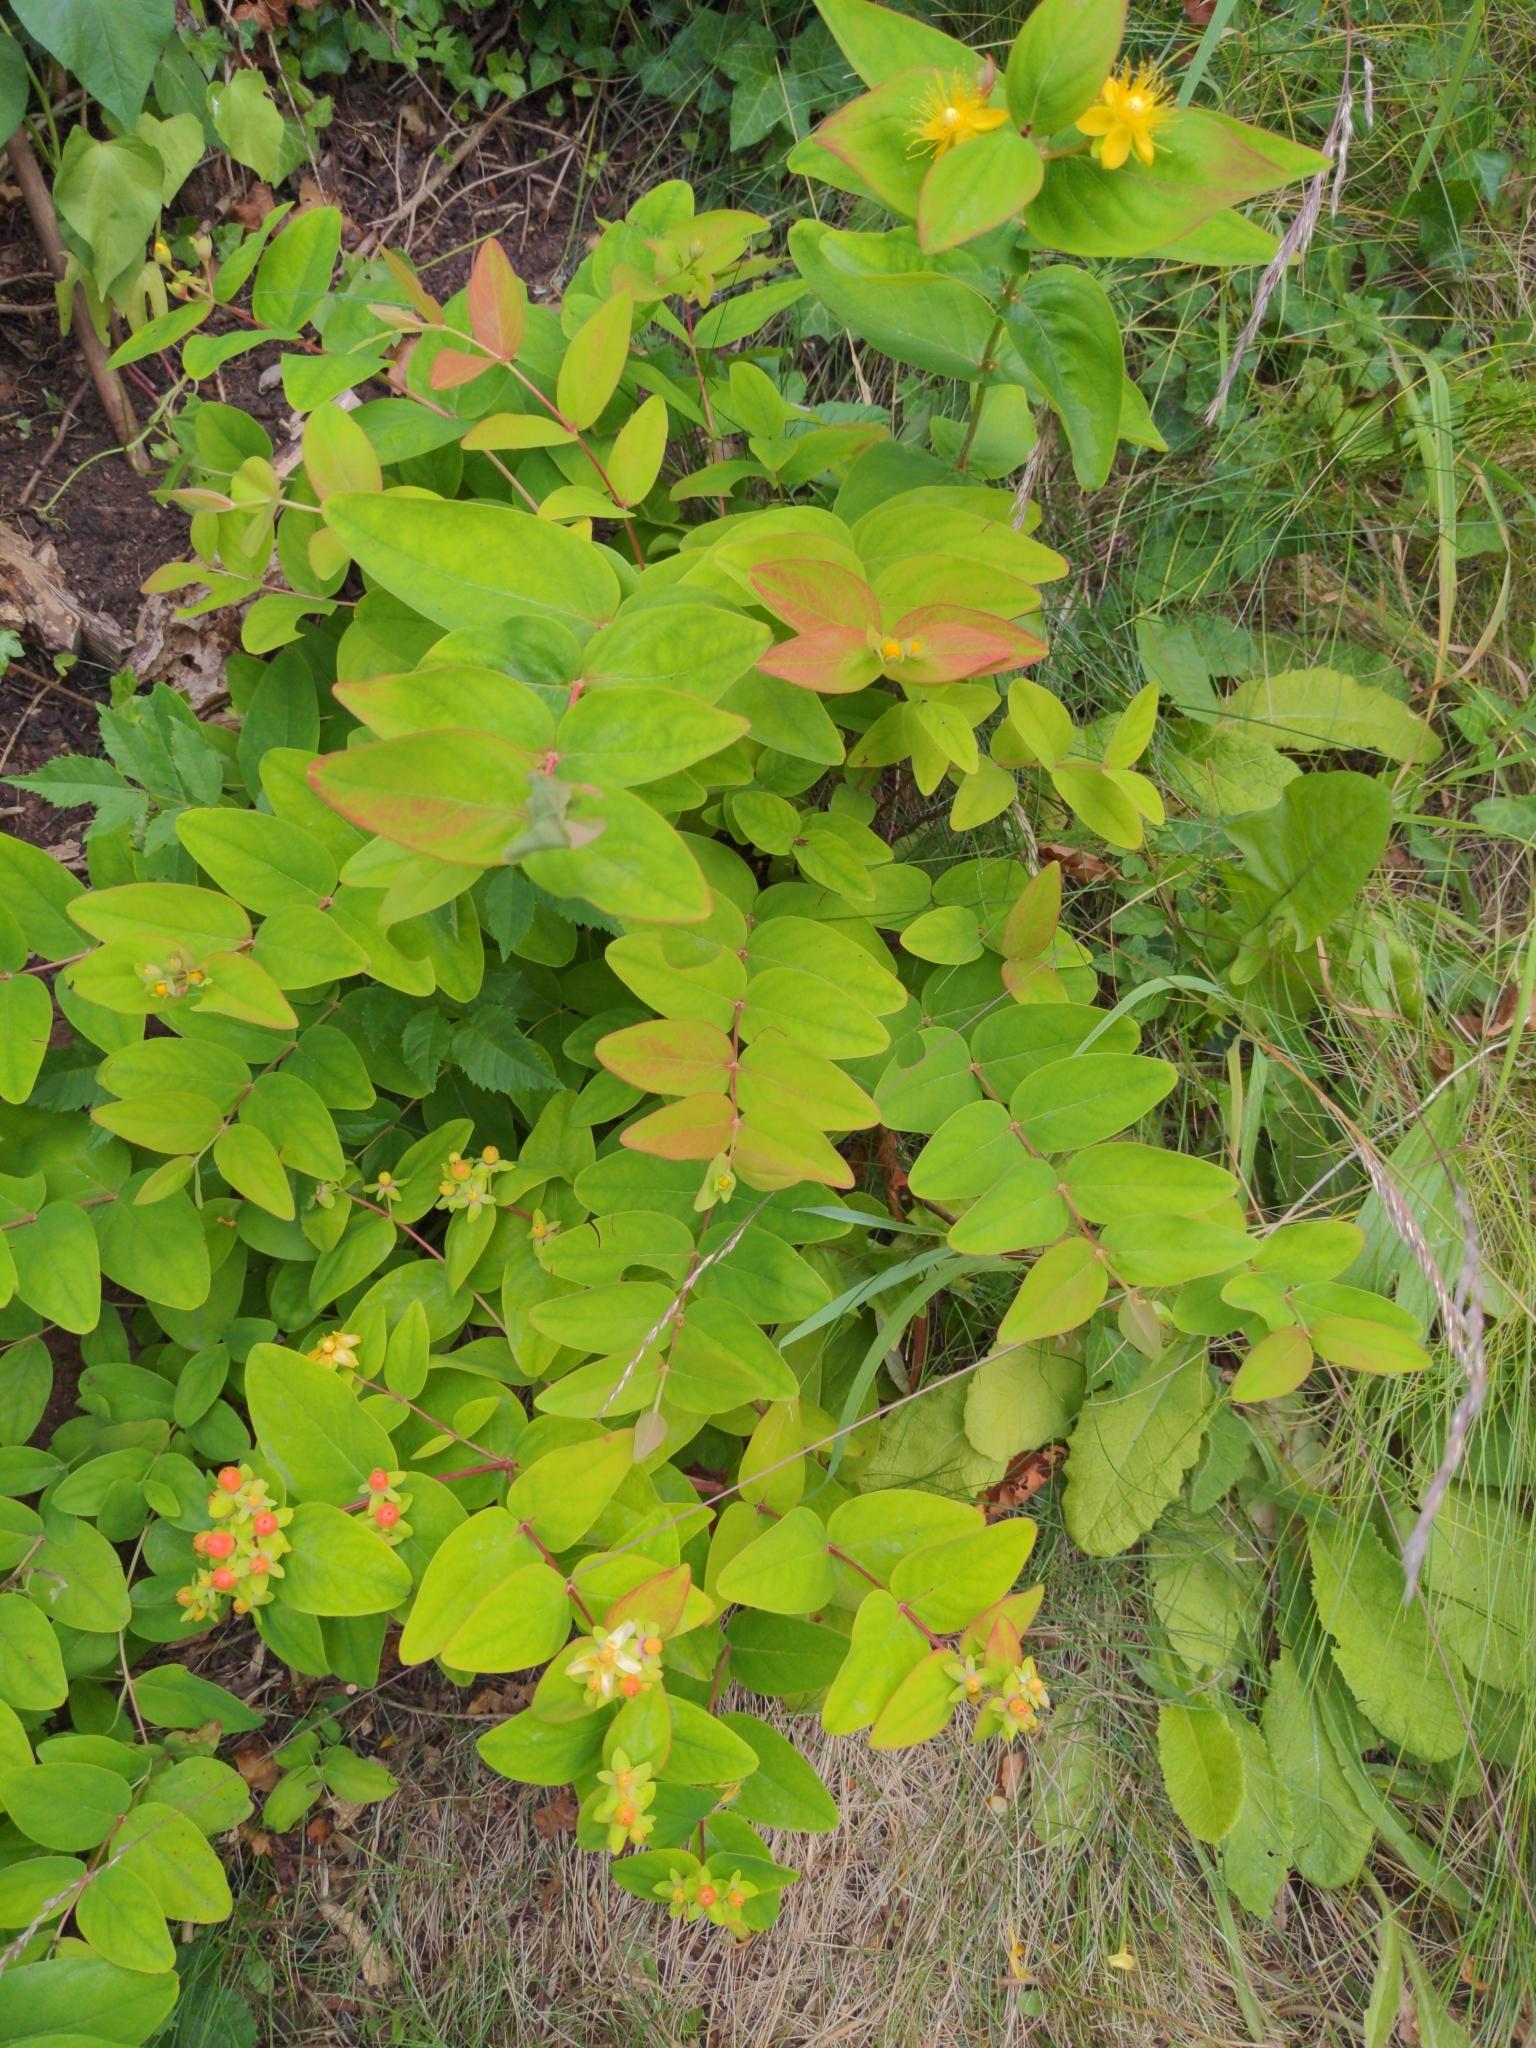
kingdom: Plantae
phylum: Tracheophyta
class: Magnoliopsida
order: Malpighiales
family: Hypericaceae
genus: Hypericum
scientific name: Hypericum androsaemum
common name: Sweet-amber
